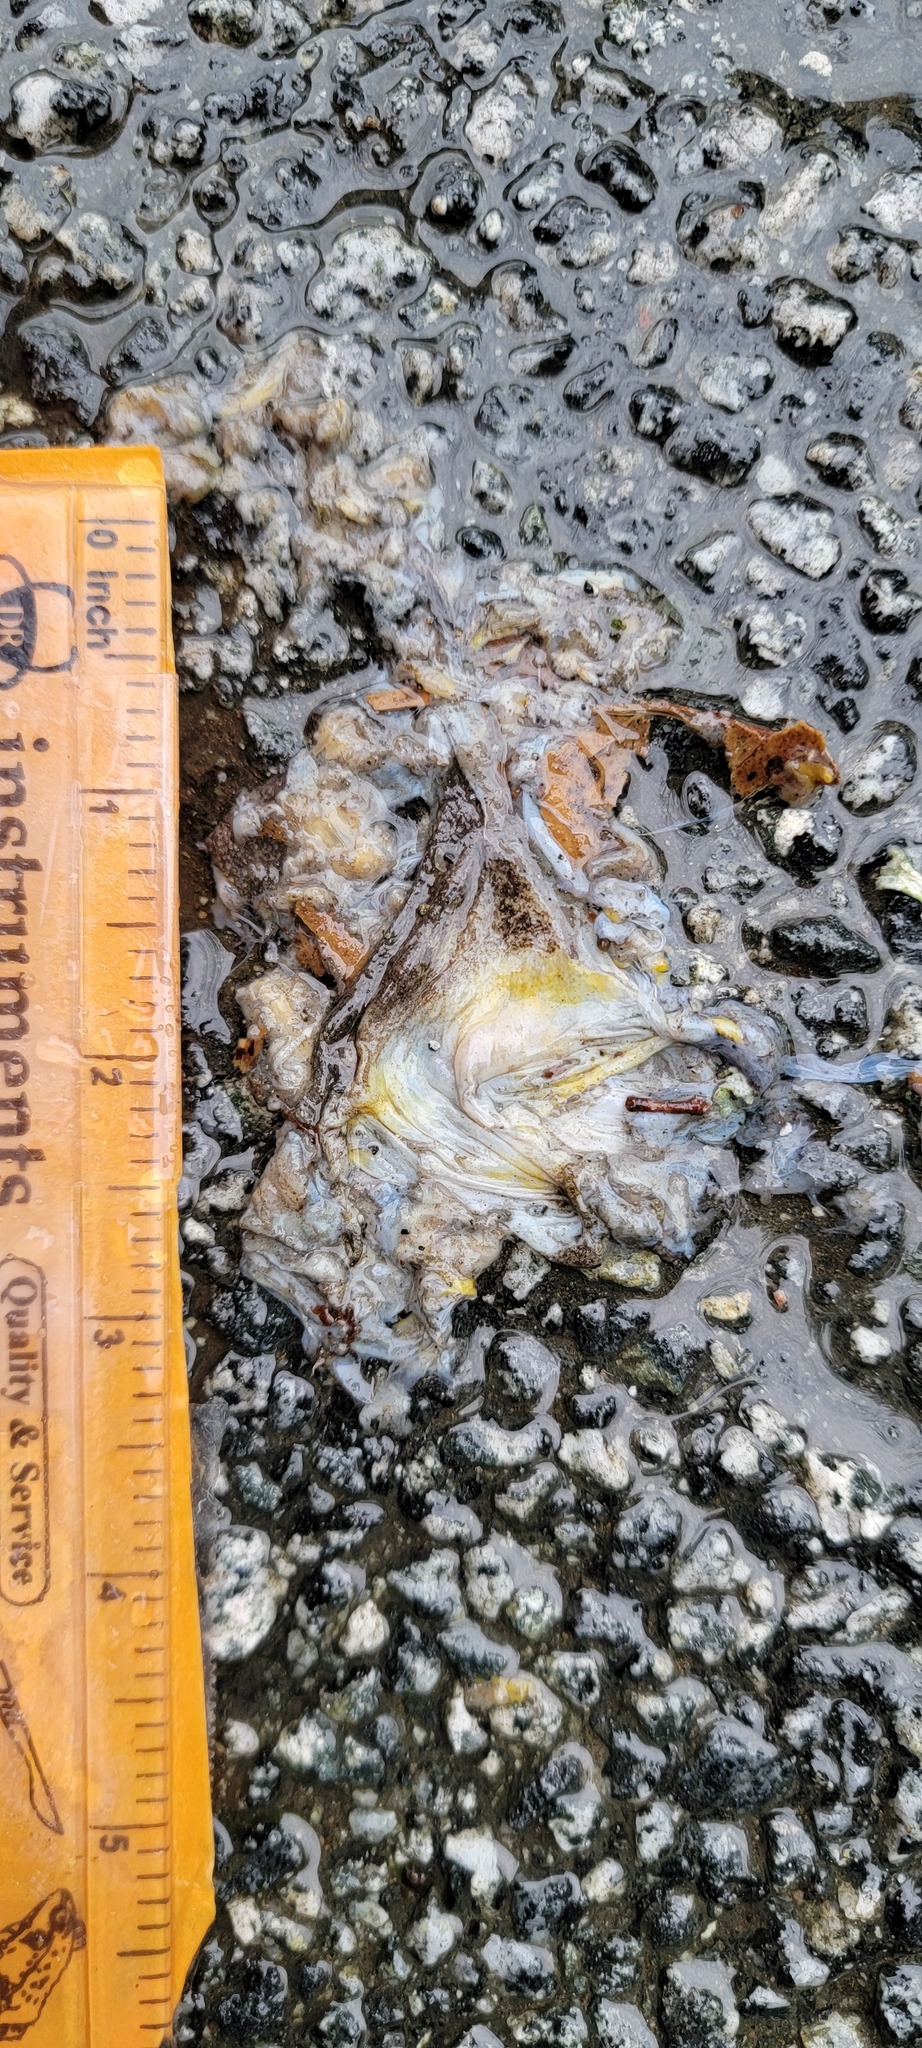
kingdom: Animalia
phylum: Chordata
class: Amphibia
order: Caudata
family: Salamandridae
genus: Taricha
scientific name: Taricha
